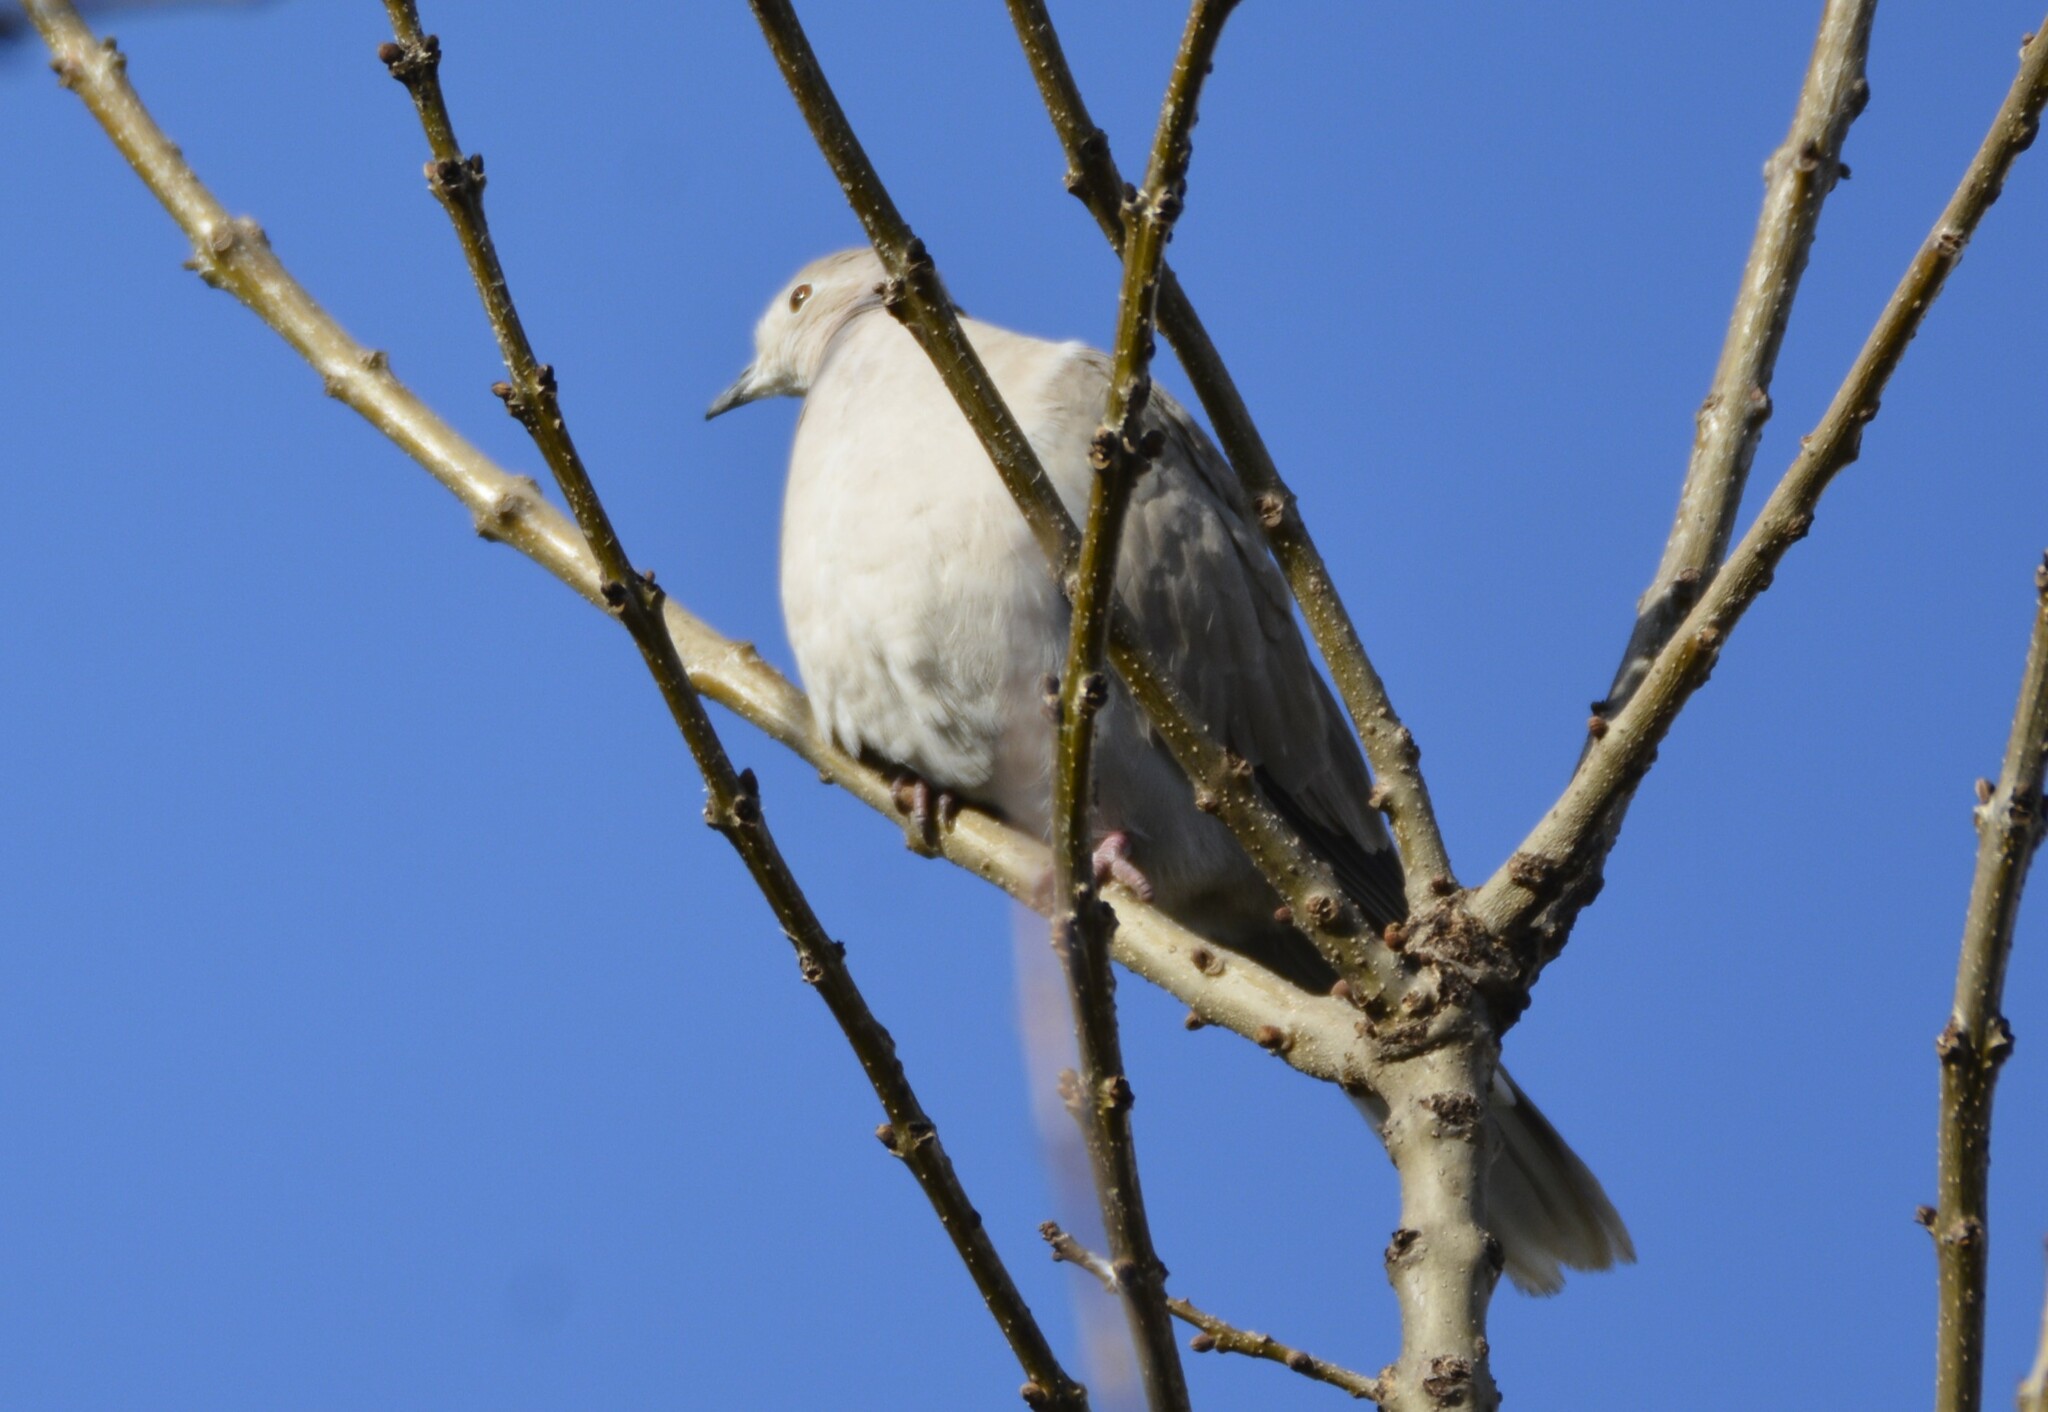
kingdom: Animalia
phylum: Chordata
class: Aves
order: Columbiformes
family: Columbidae
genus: Streptopelia
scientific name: Streptopelia decaocto
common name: Eurasian collared dove
